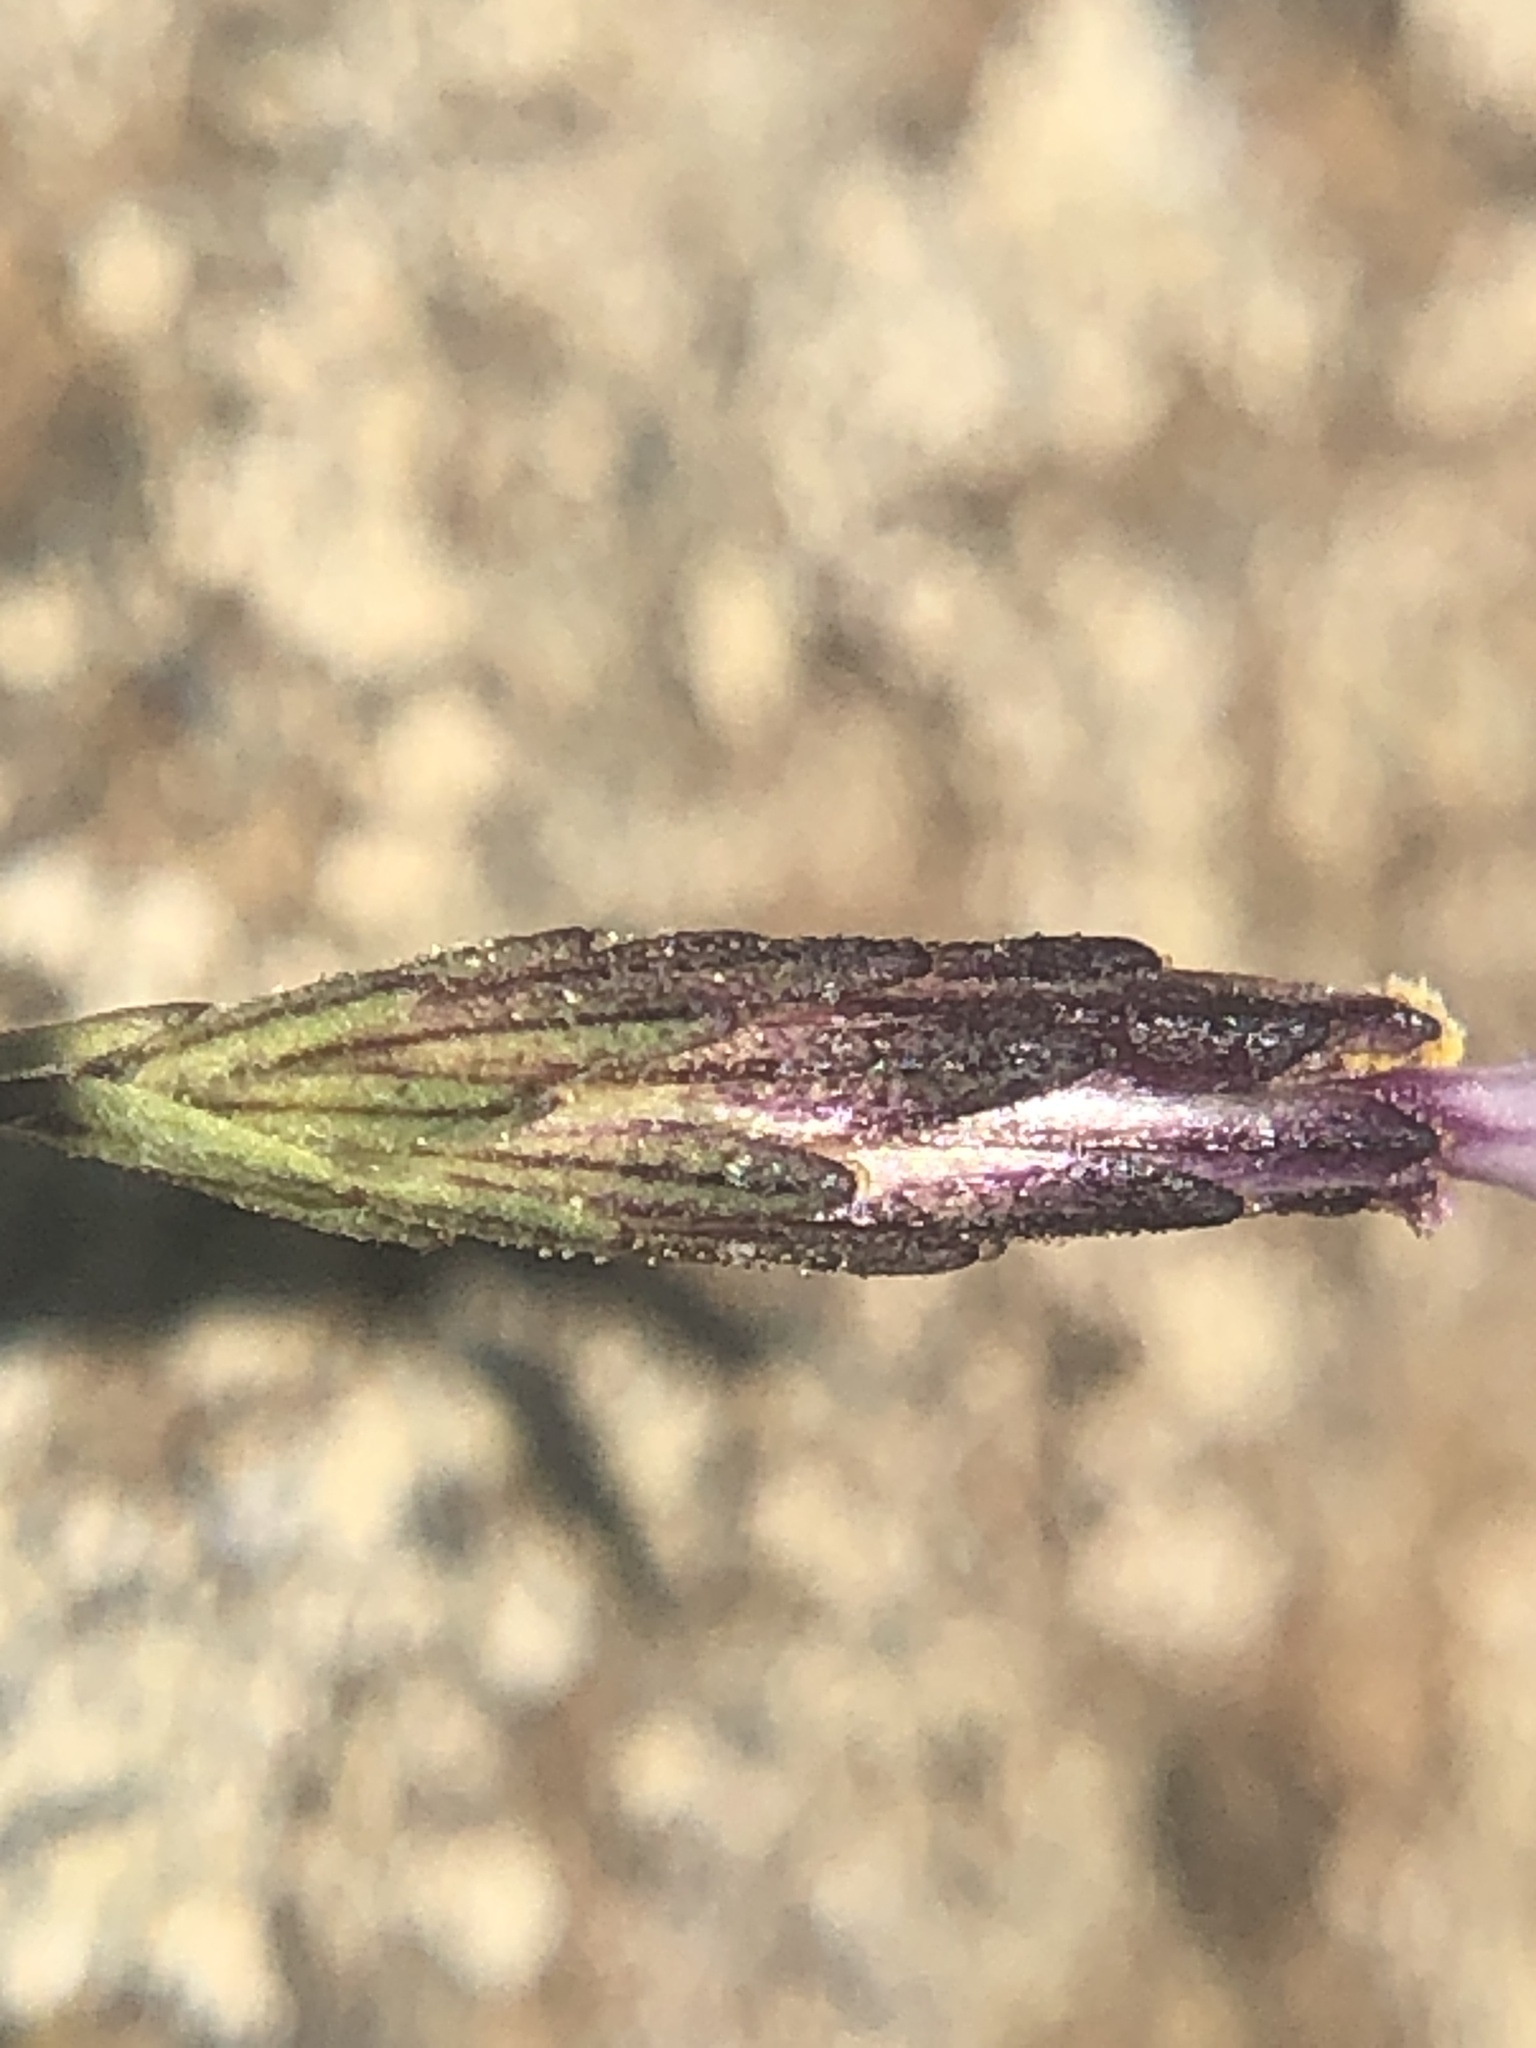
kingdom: Plantae
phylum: Tracheophyta
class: Magnoliopsida
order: Asterales
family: Asteraceae
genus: Lessingia
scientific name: Lessingia micradenia
